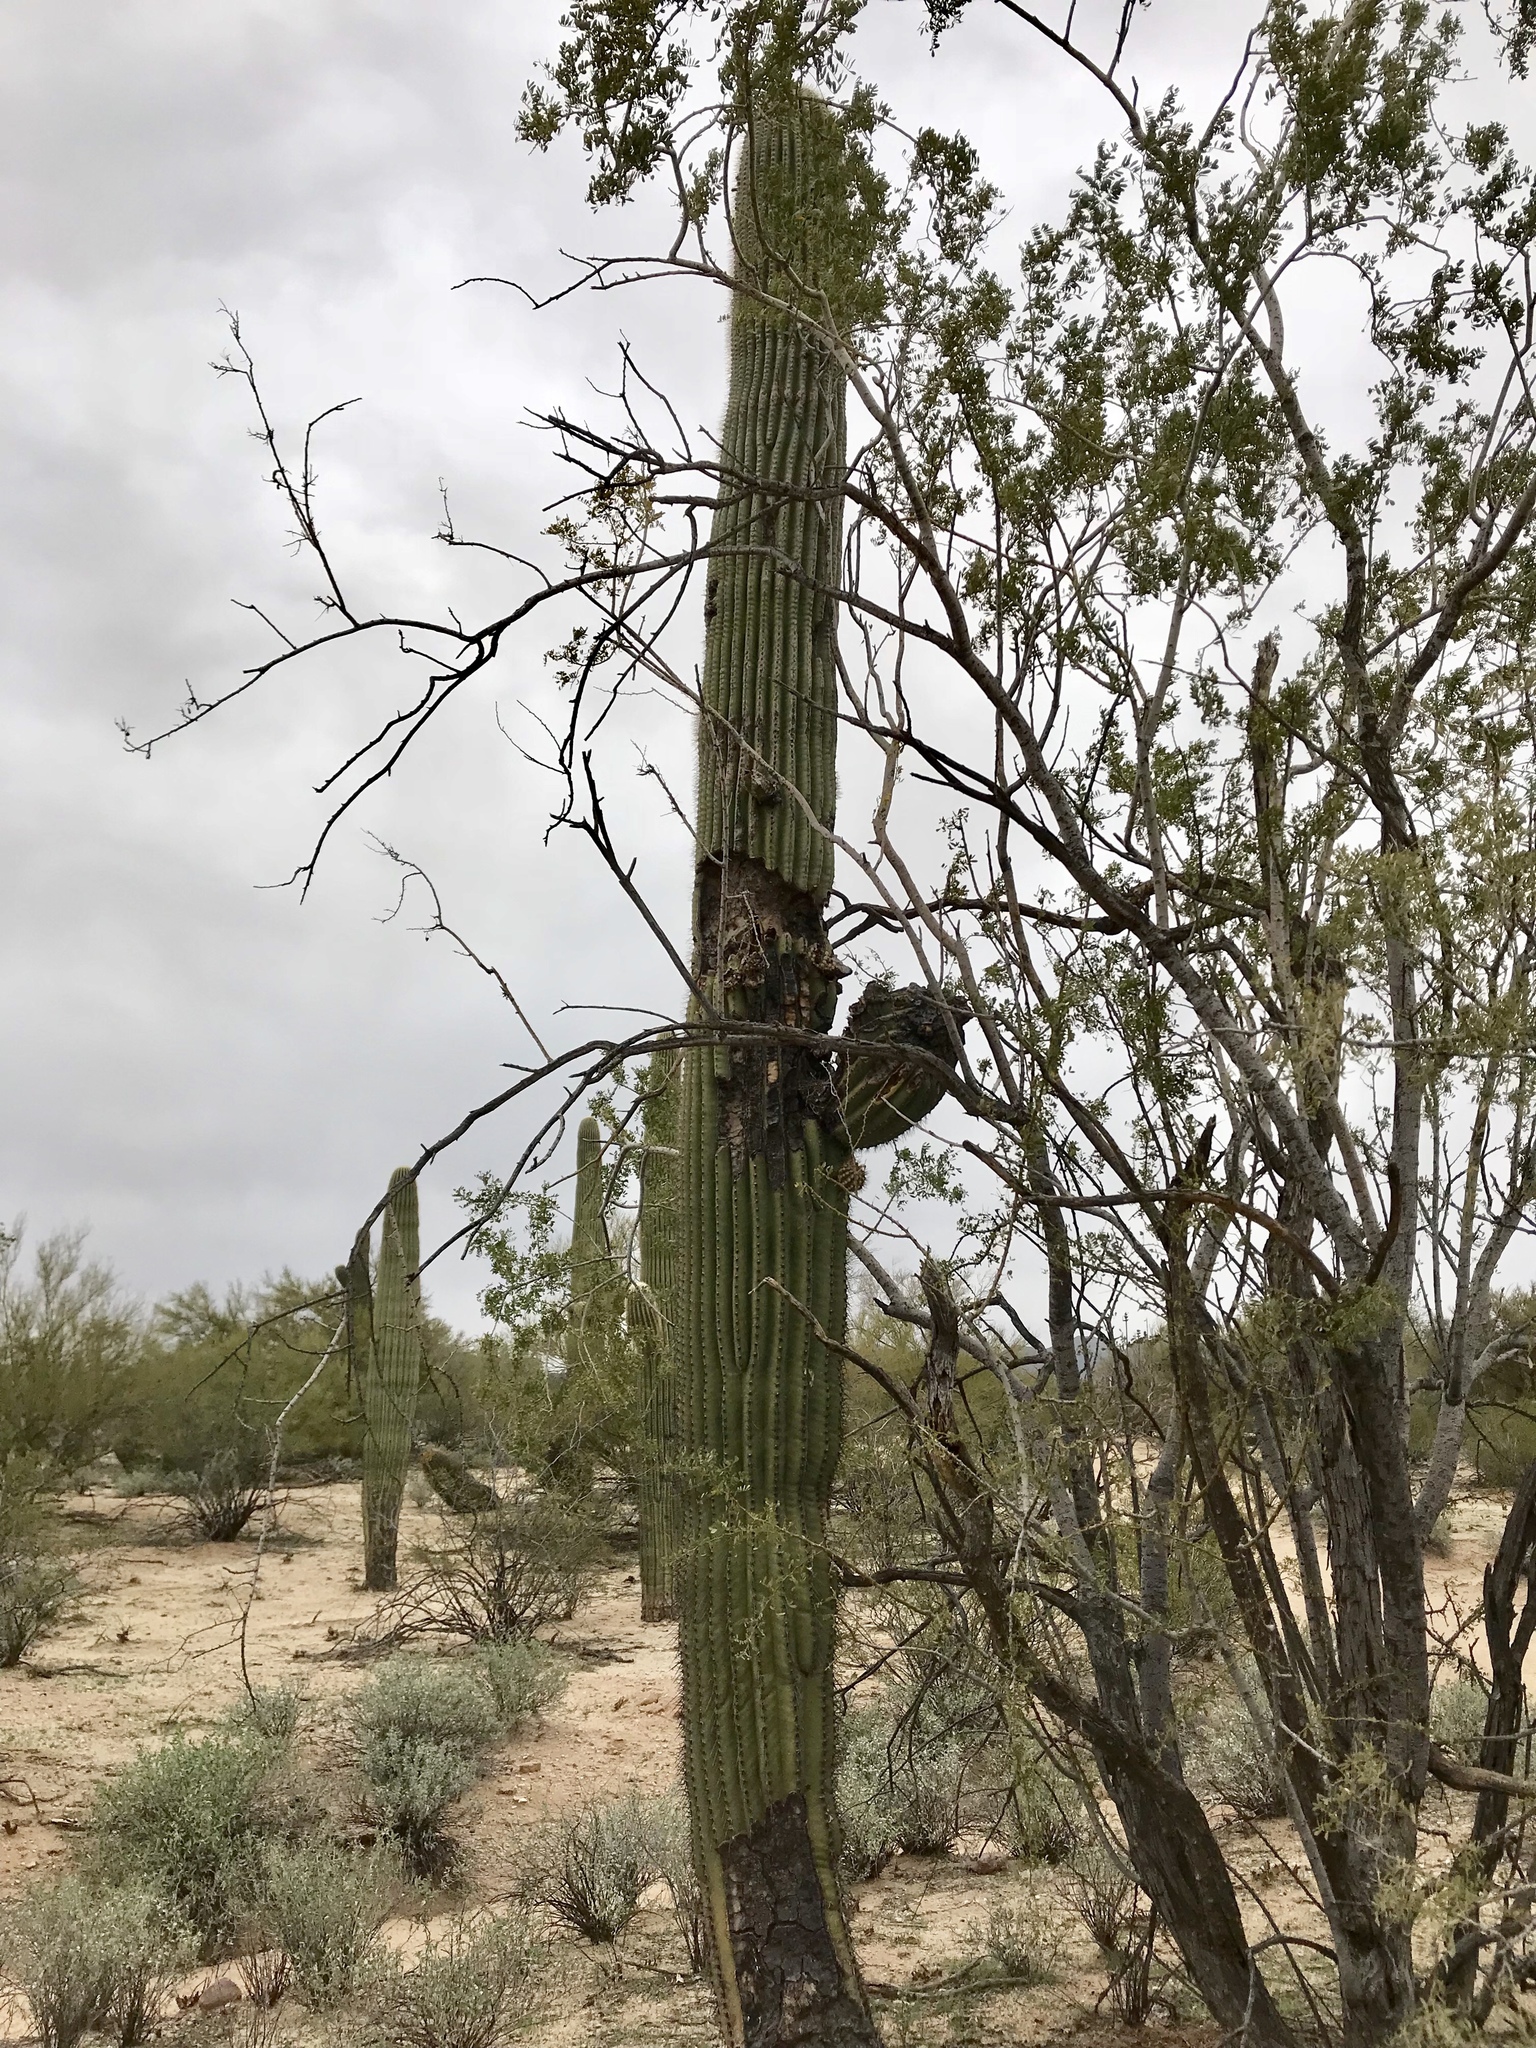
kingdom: Plantae
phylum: Tracheophyta
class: Magnoliopsida
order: Caryophyllales
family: Cactaceae
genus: Carnegiea
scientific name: Carnegiea gigantea
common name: Saguaro
